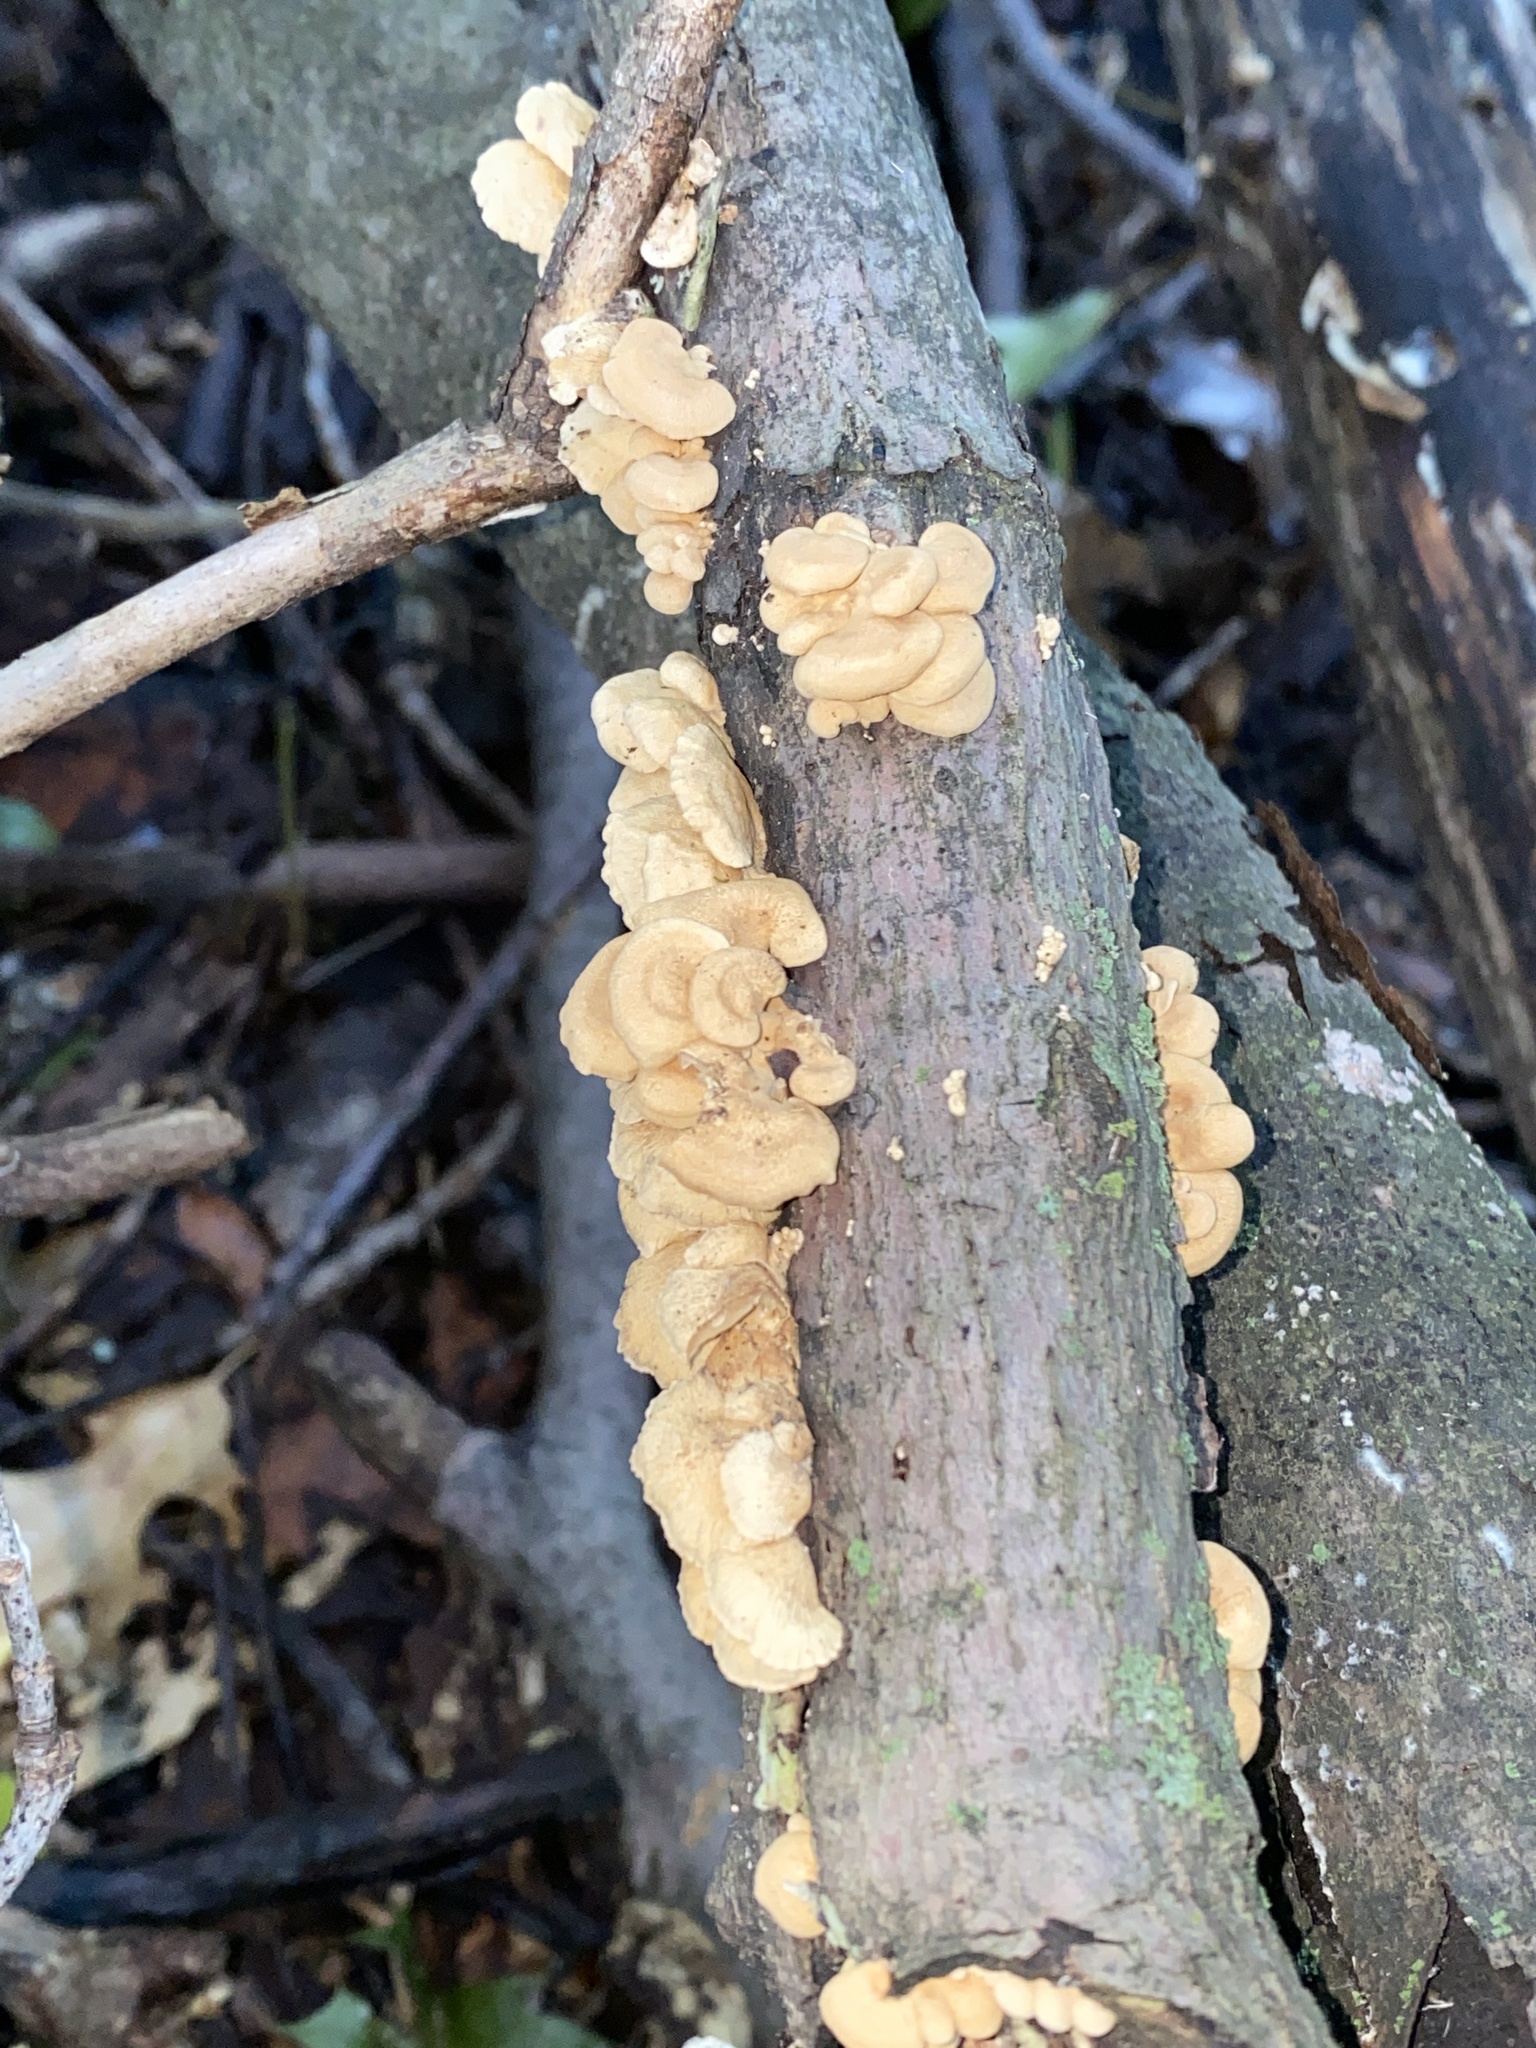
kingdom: Fungi
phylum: Basidiomycota
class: Agaricomycetes
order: Agaricales
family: Mycenaceae
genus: Panellus
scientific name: Panellus stipticus
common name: Bitter oysterling
